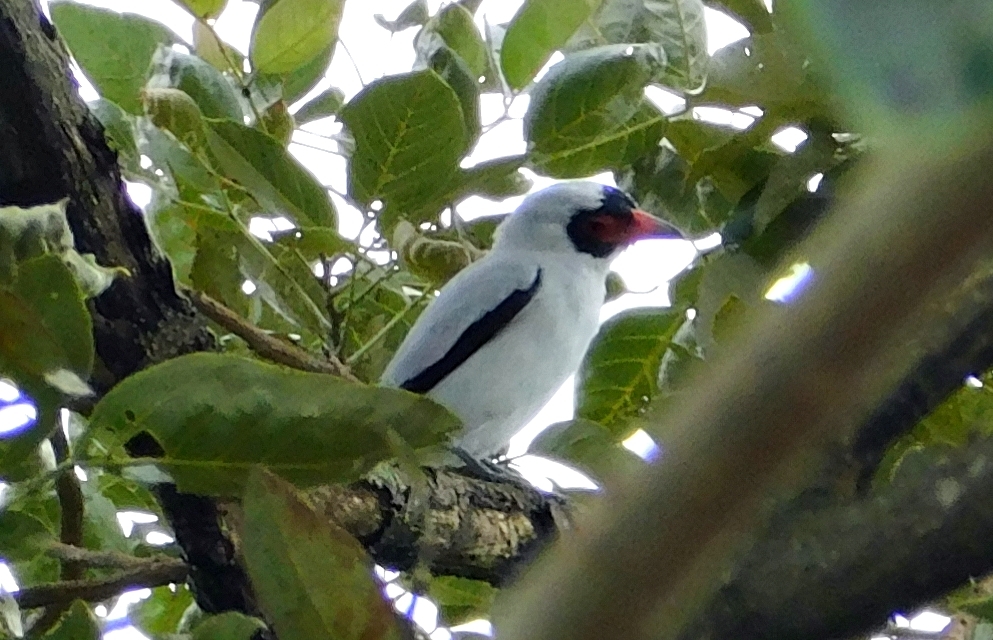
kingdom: Animalia
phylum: Chordata
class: Aves
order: Passeriformes
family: Cotingidae
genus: Tityra
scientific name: Tityra semifasciata
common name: Masked tityra
